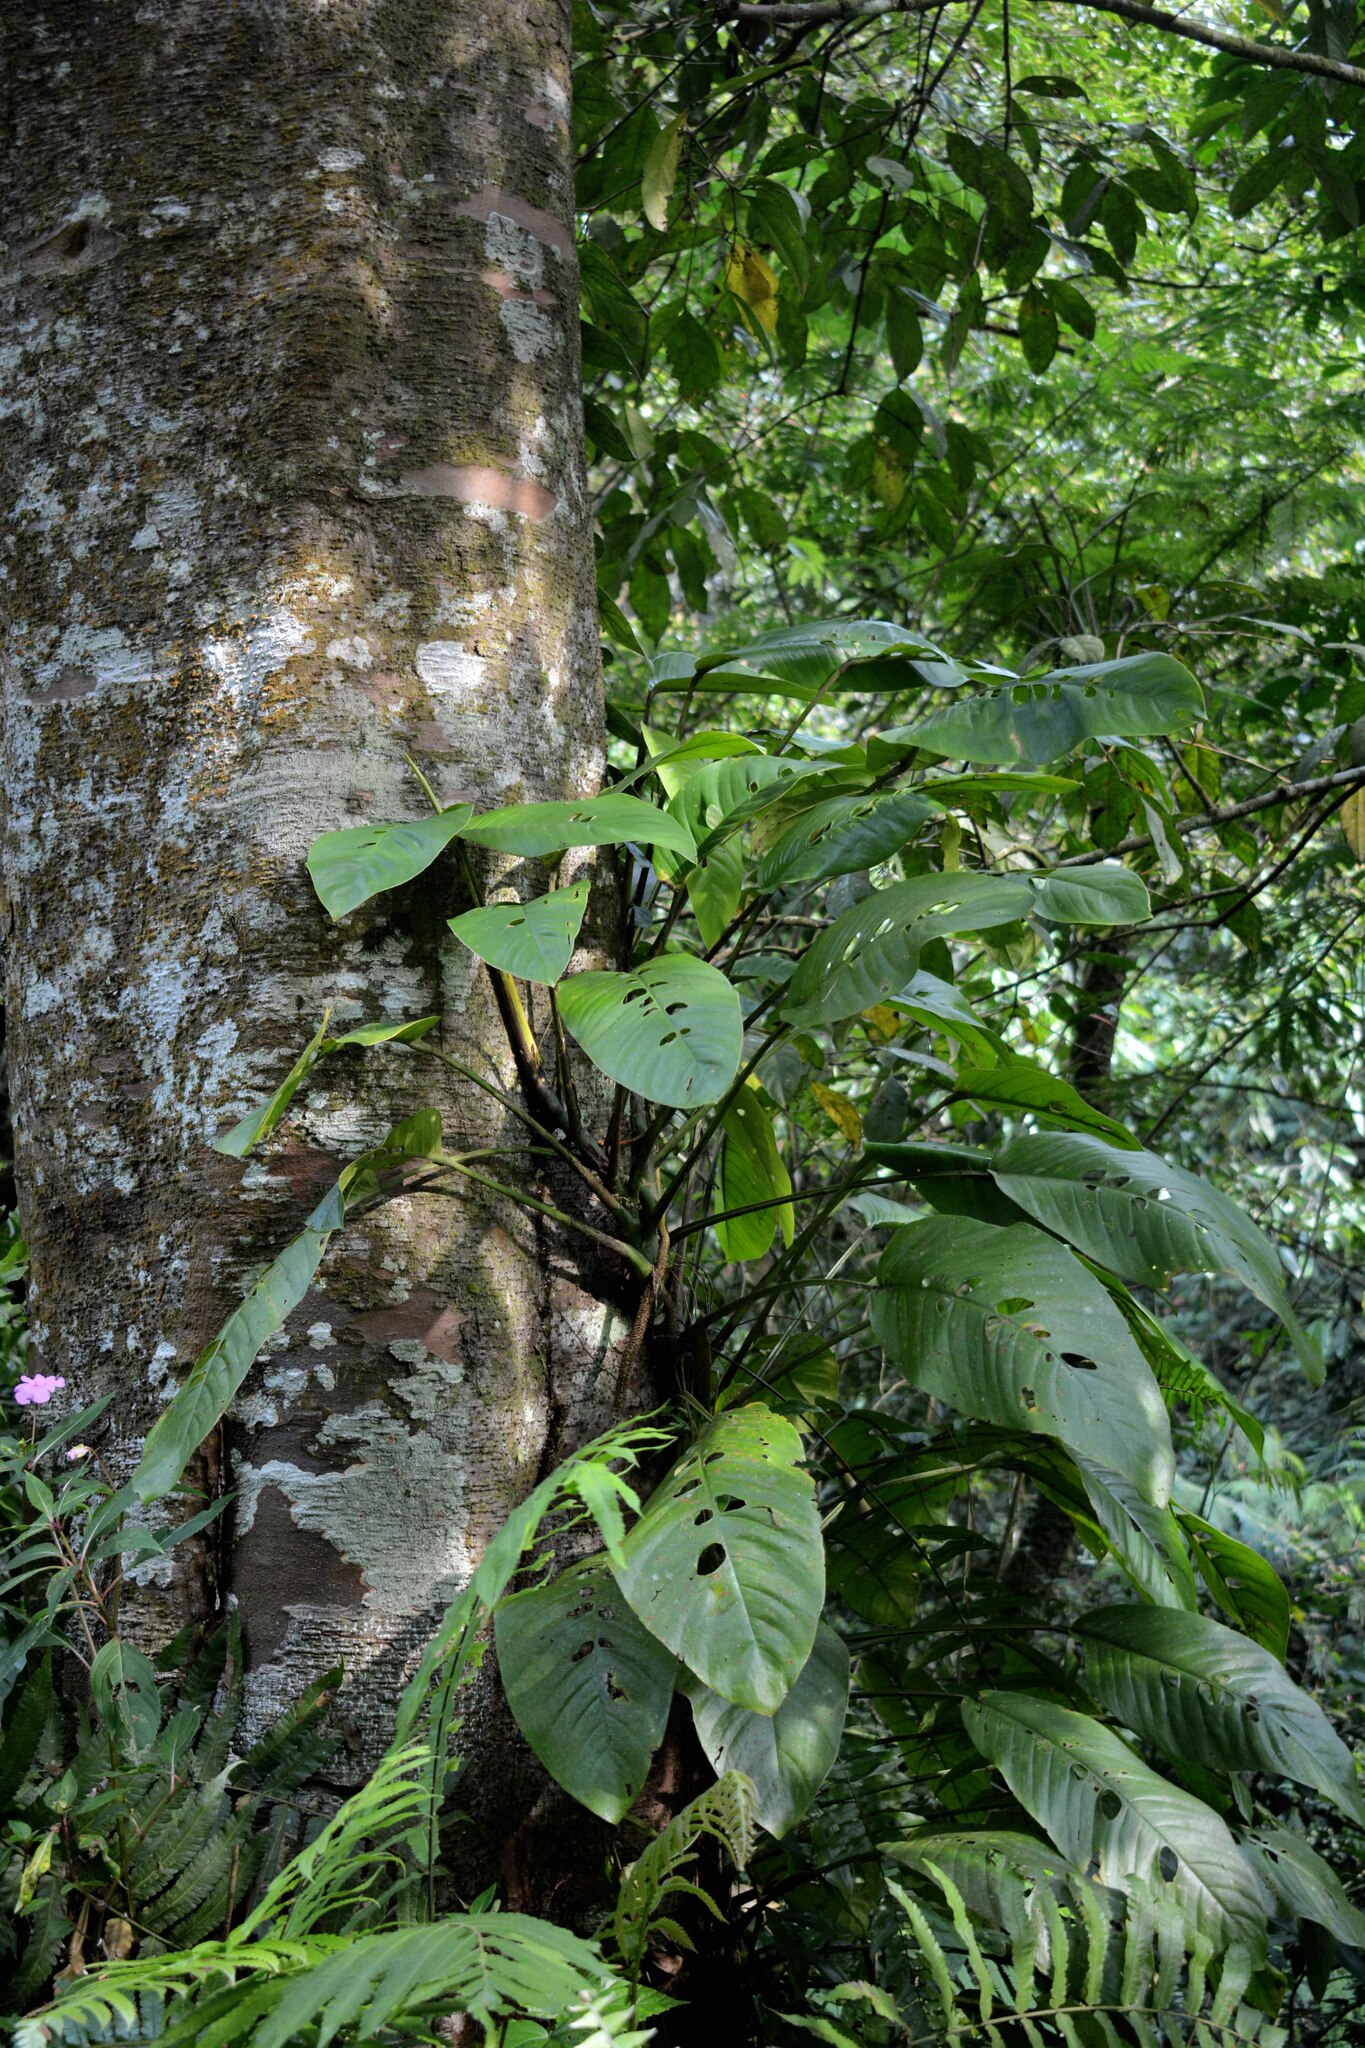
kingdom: Plantae
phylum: Tracheophyta
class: Liliopsida
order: Alismatales
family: Araceae
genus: Rhaphidophora
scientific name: Rhaphidophora montana
